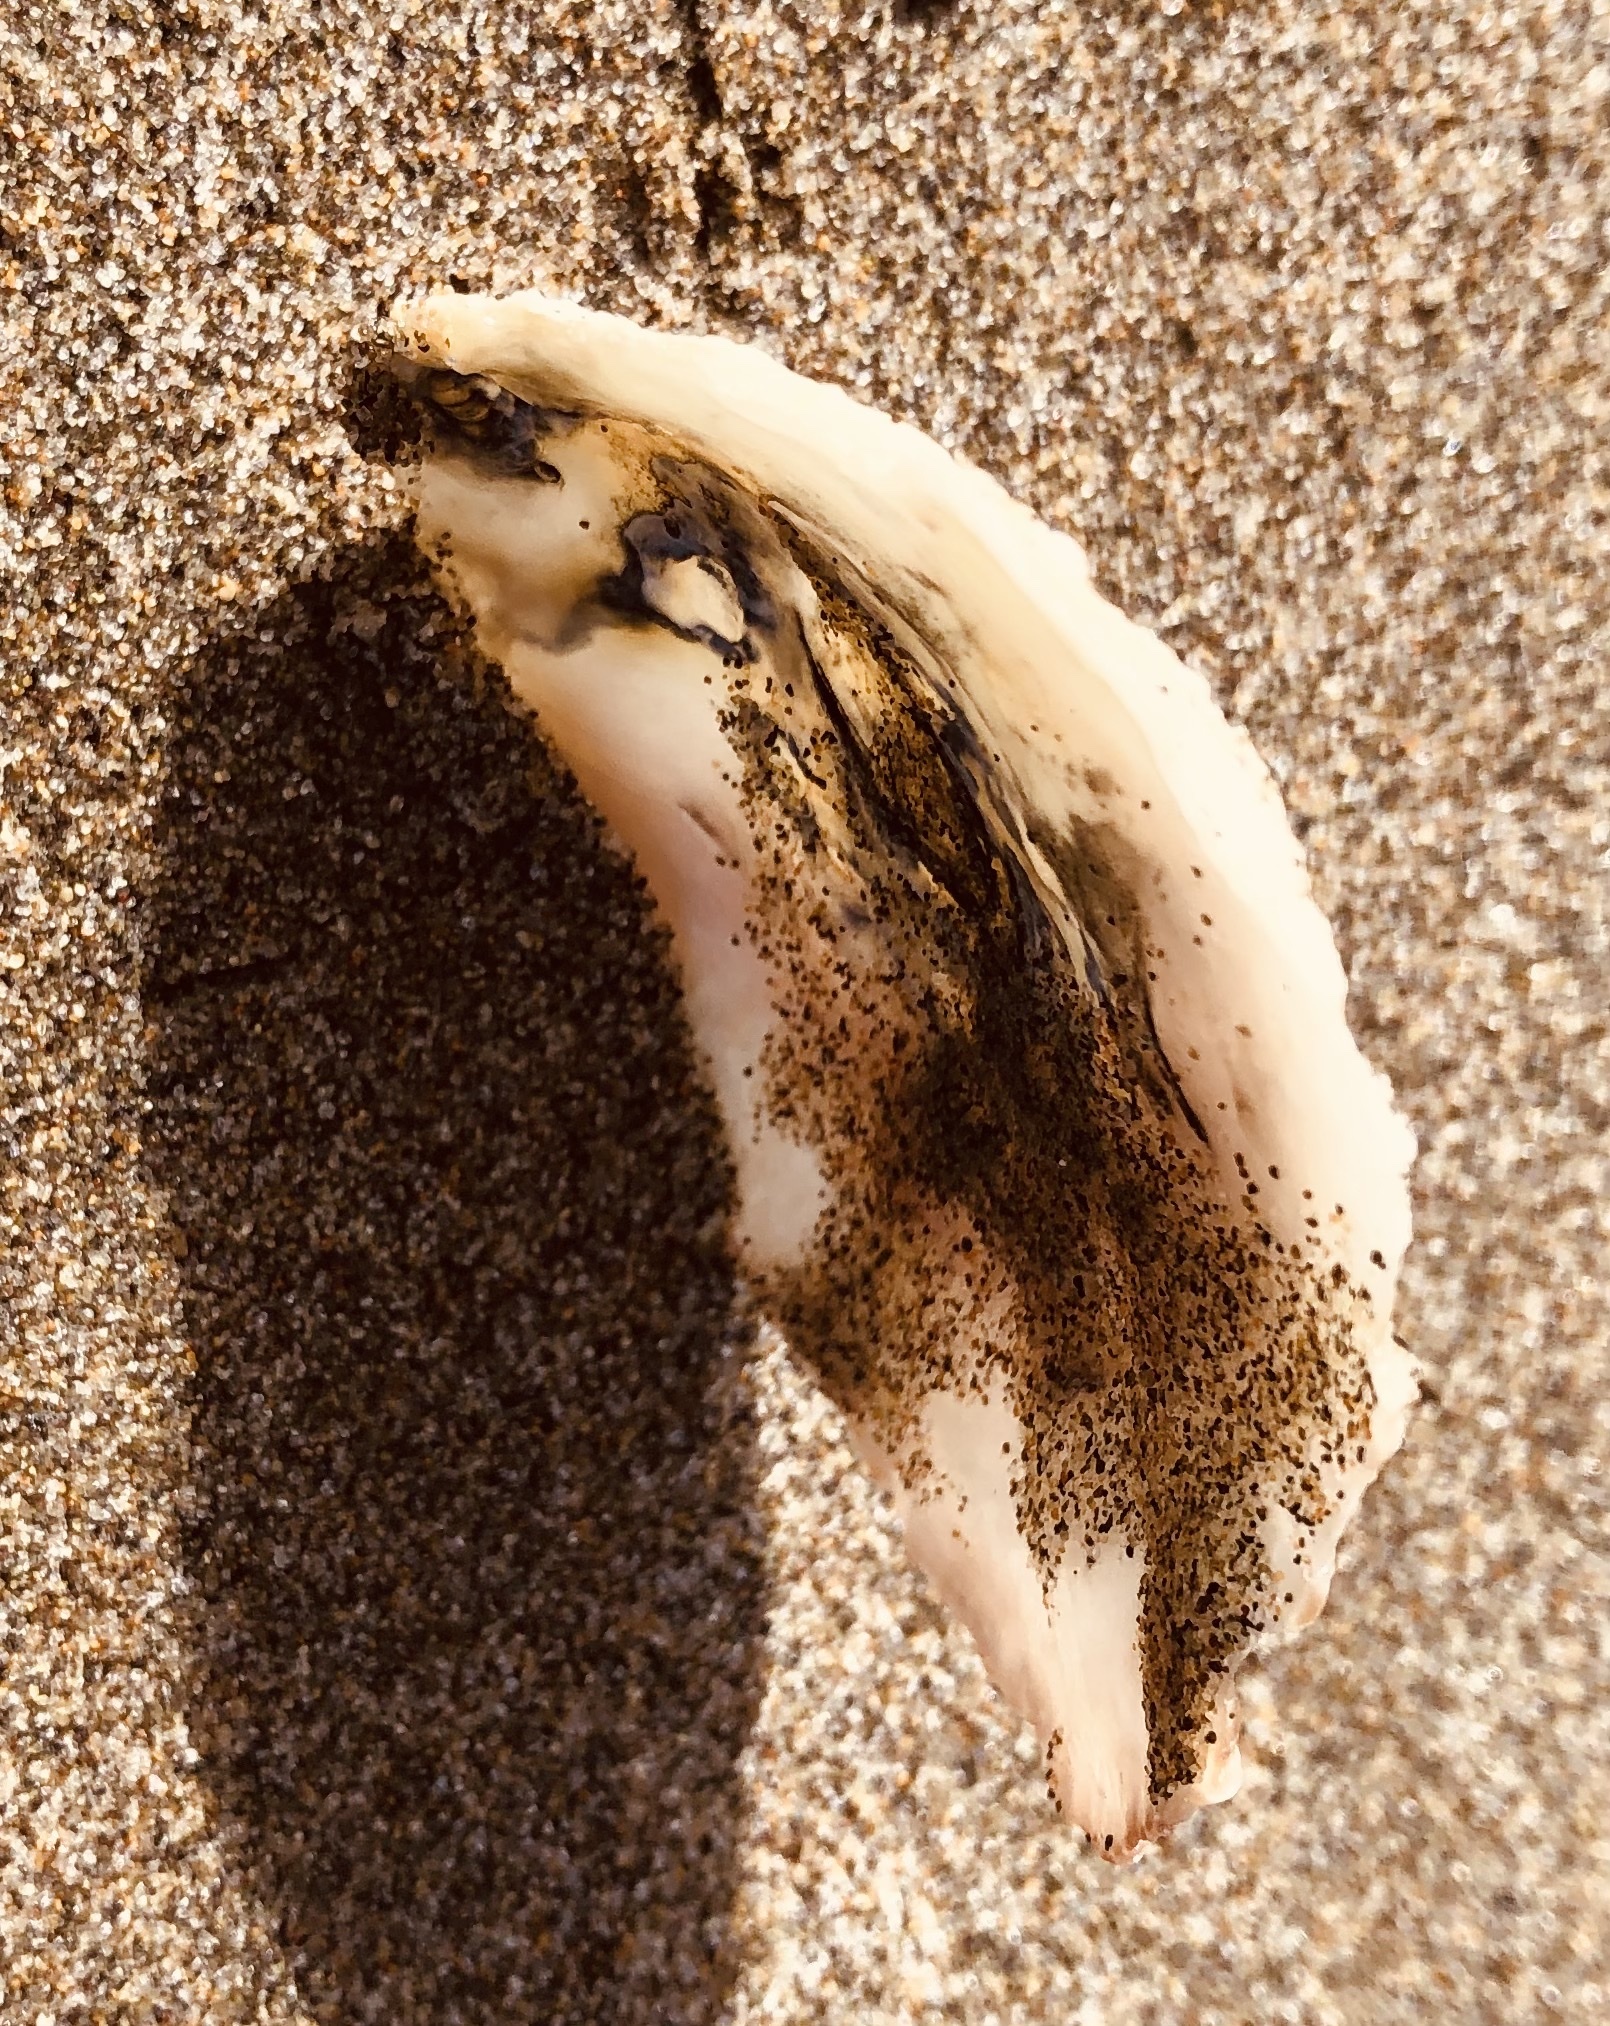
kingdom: Animalia
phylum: Mollusca
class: Bivalvia
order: Pectinida
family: Anomiidae
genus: Tedinia
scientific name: Tedinia pernoides
